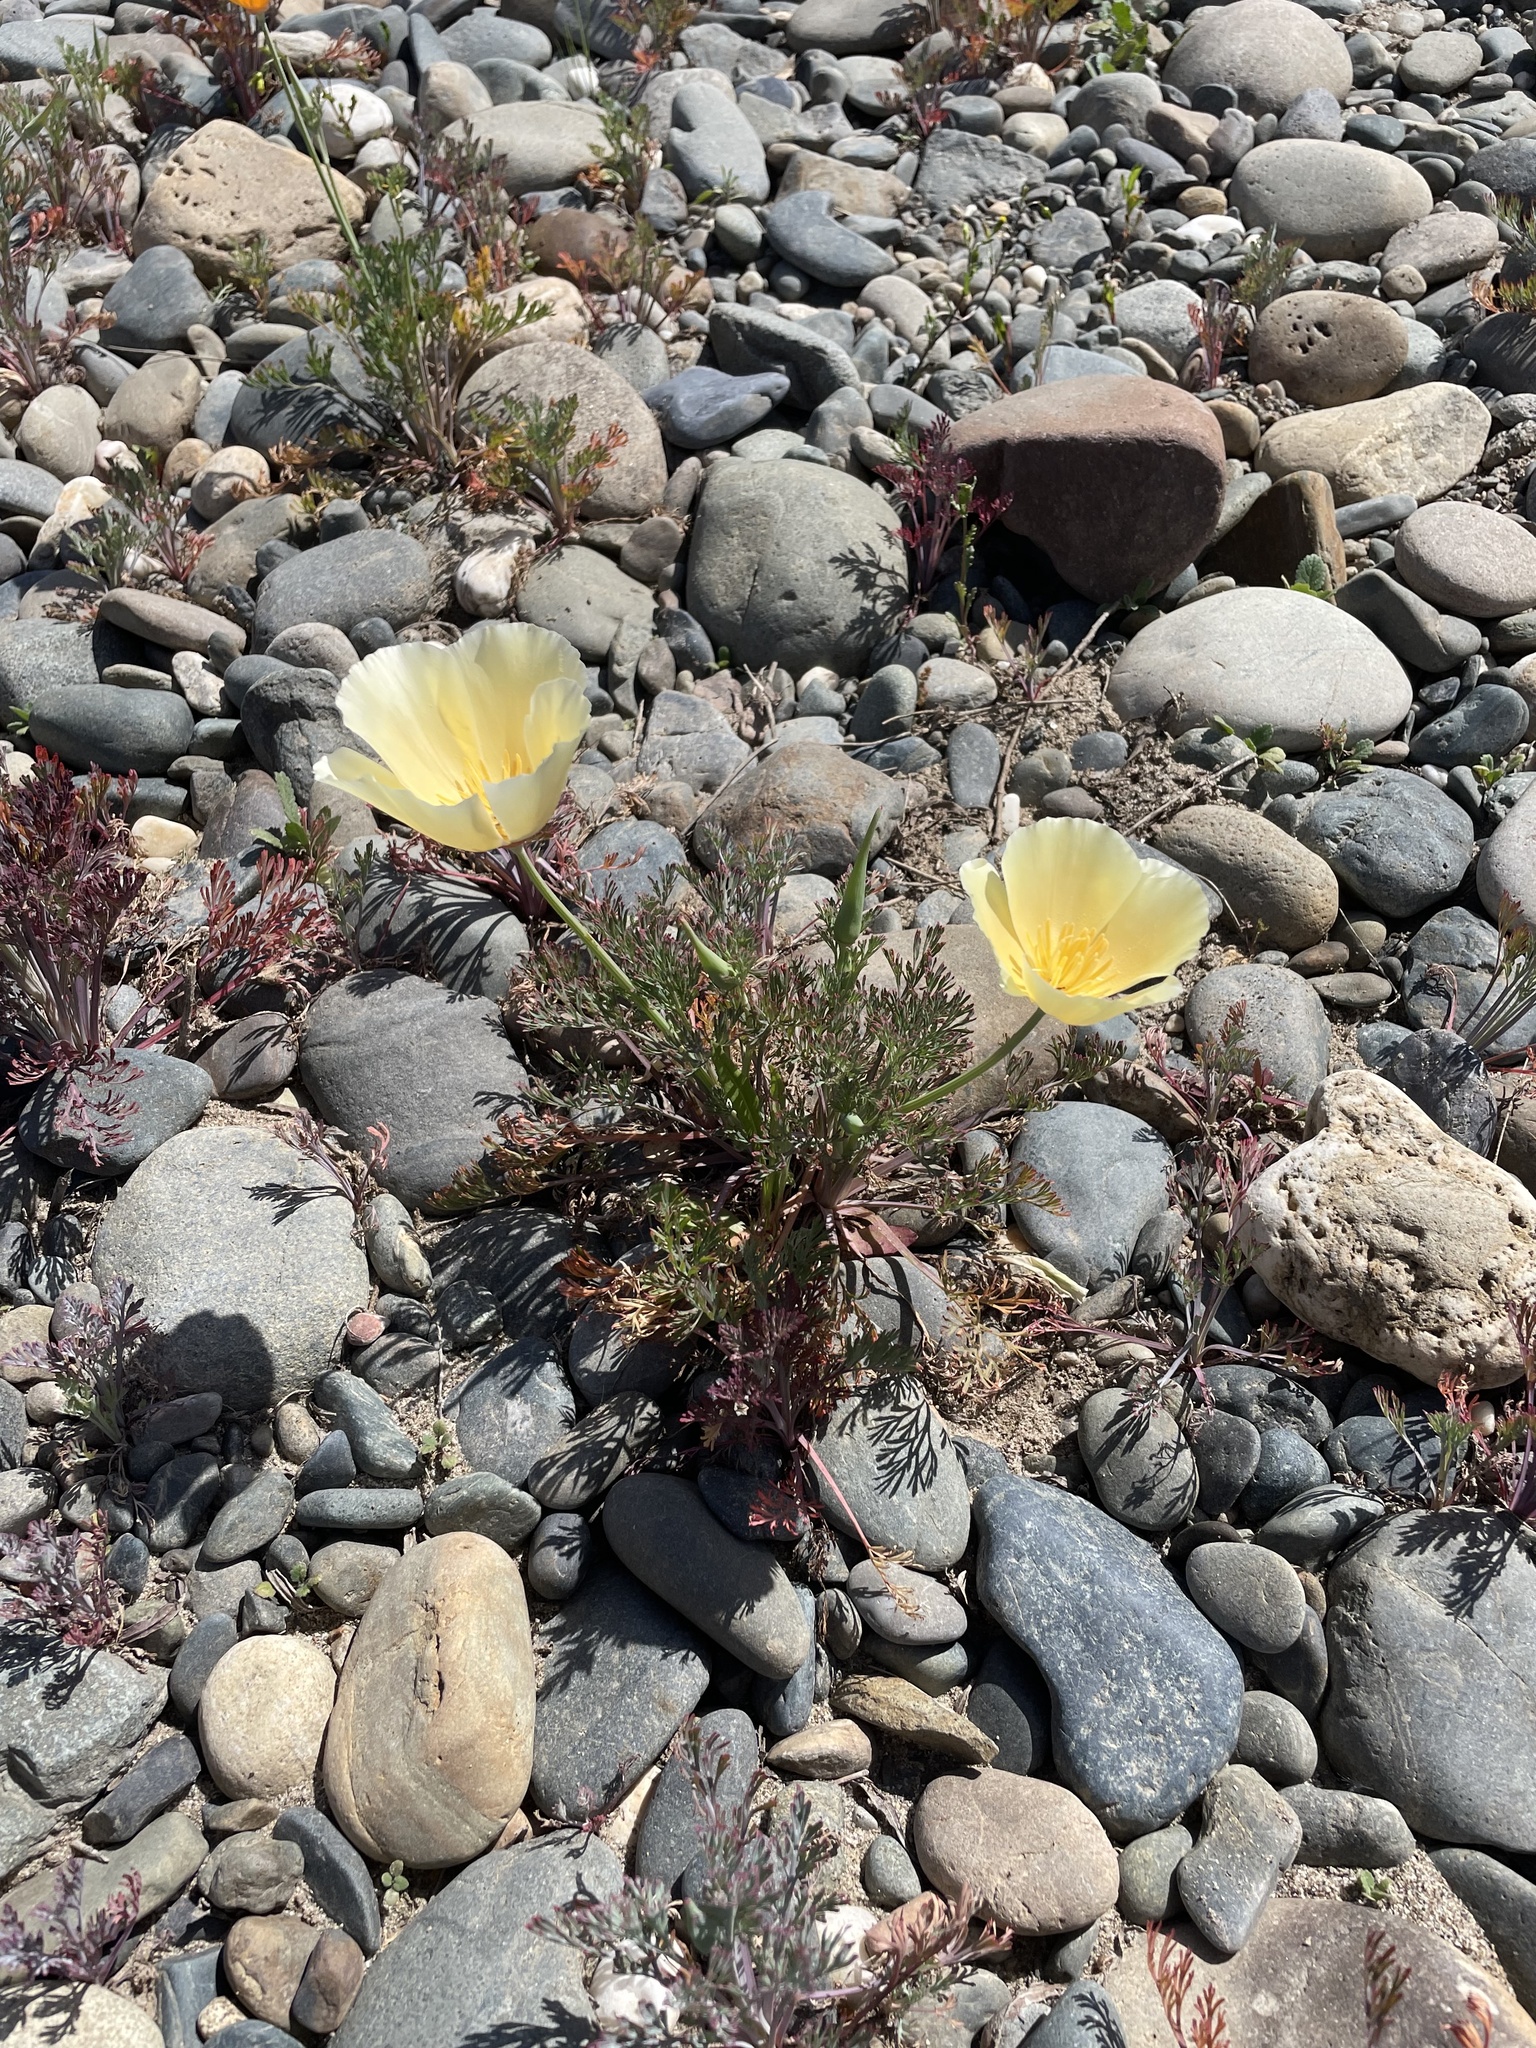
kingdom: Plantae
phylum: Tracheophyta
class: Magnoliopsida
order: Ranunculales
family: Papaveraceae
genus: Eschscholzia
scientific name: Eschscholzia californica
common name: California poppy
